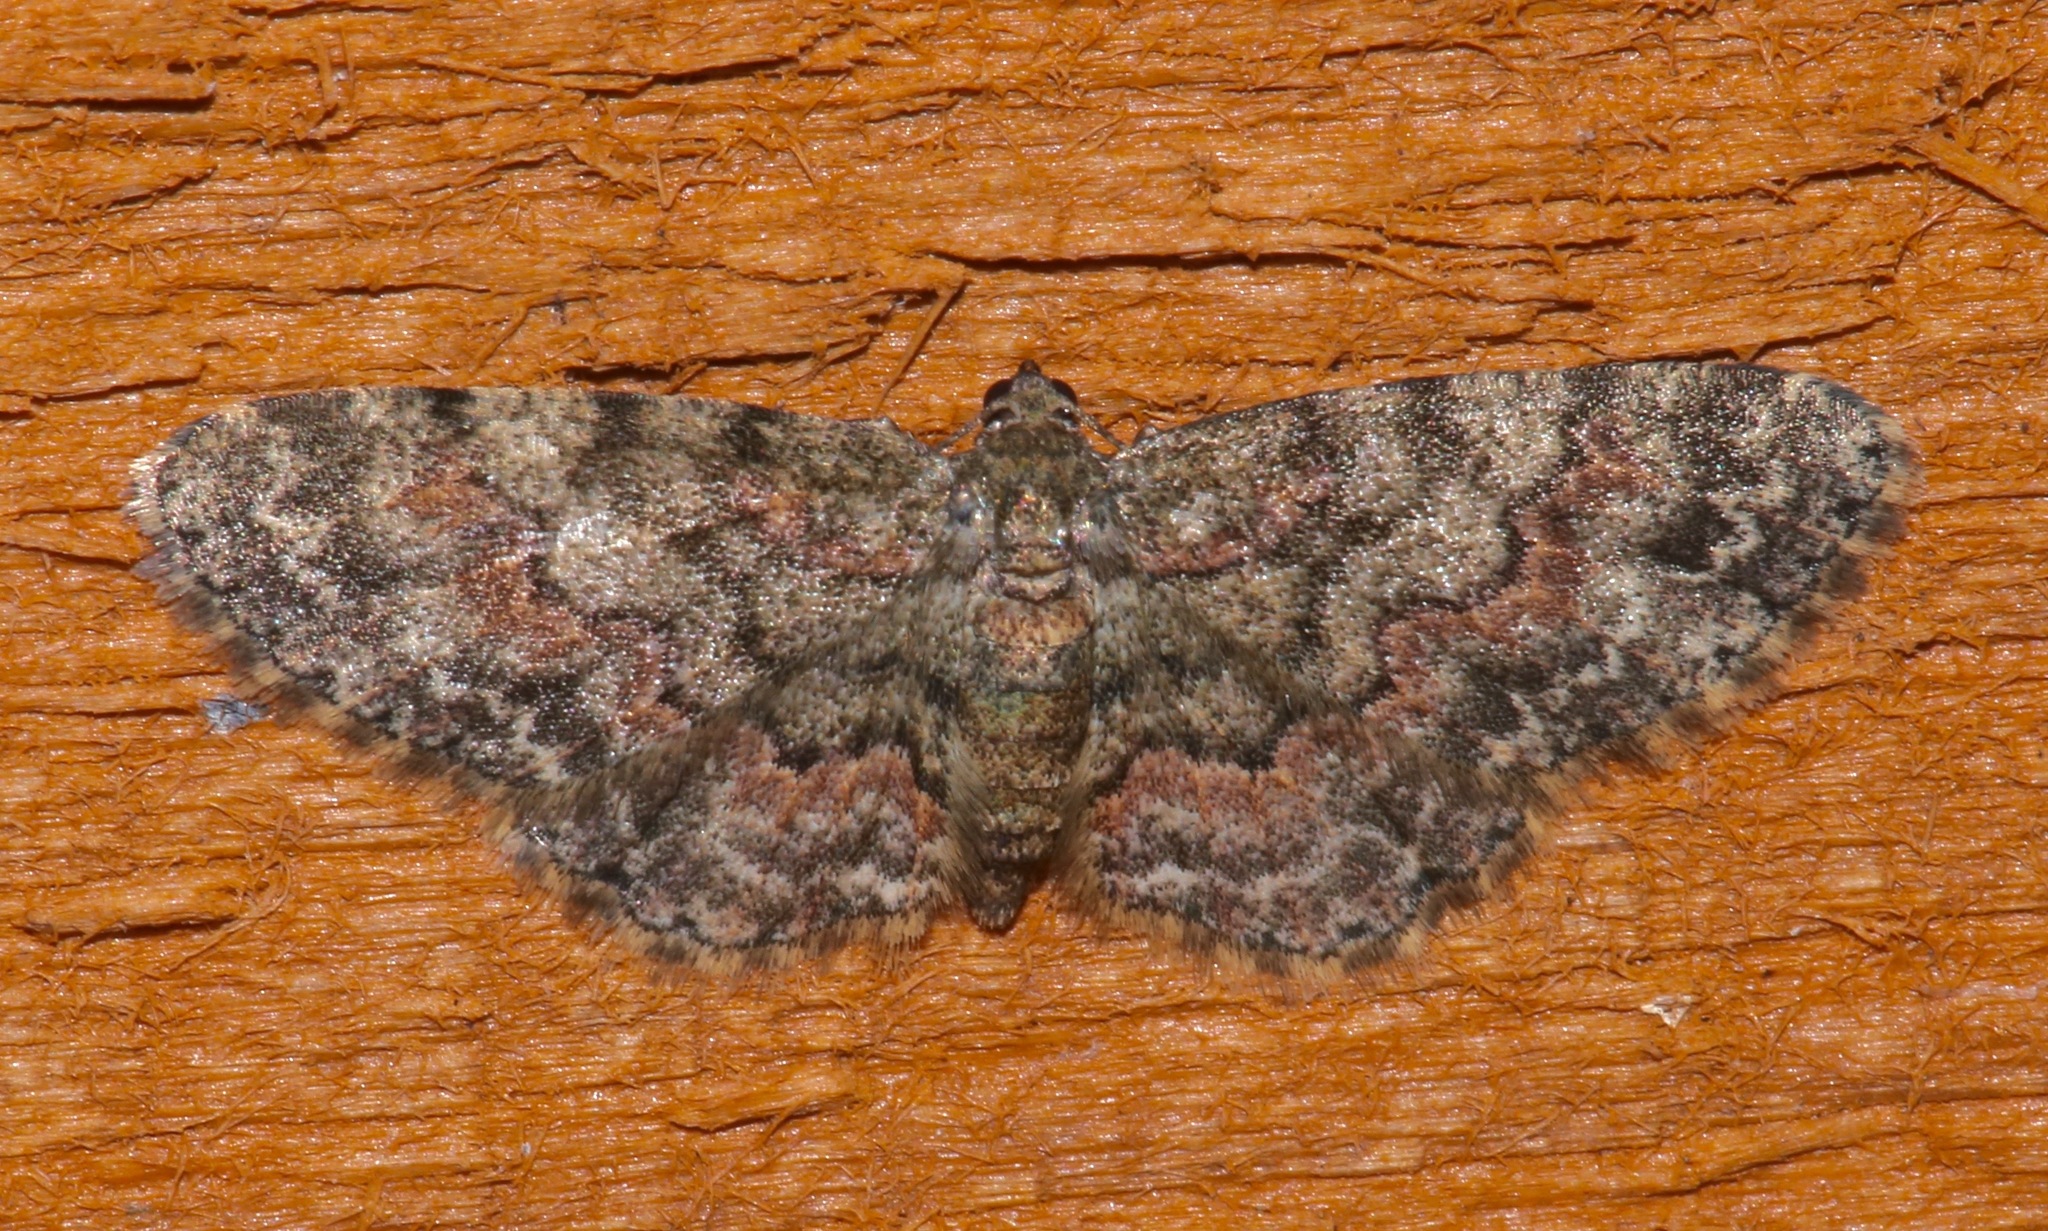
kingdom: Animalia
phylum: Arthropoda
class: Insecta
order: Lepidoptera
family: Geometridae
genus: Glenoides
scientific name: Glenoides texanaria
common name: Texas gray
